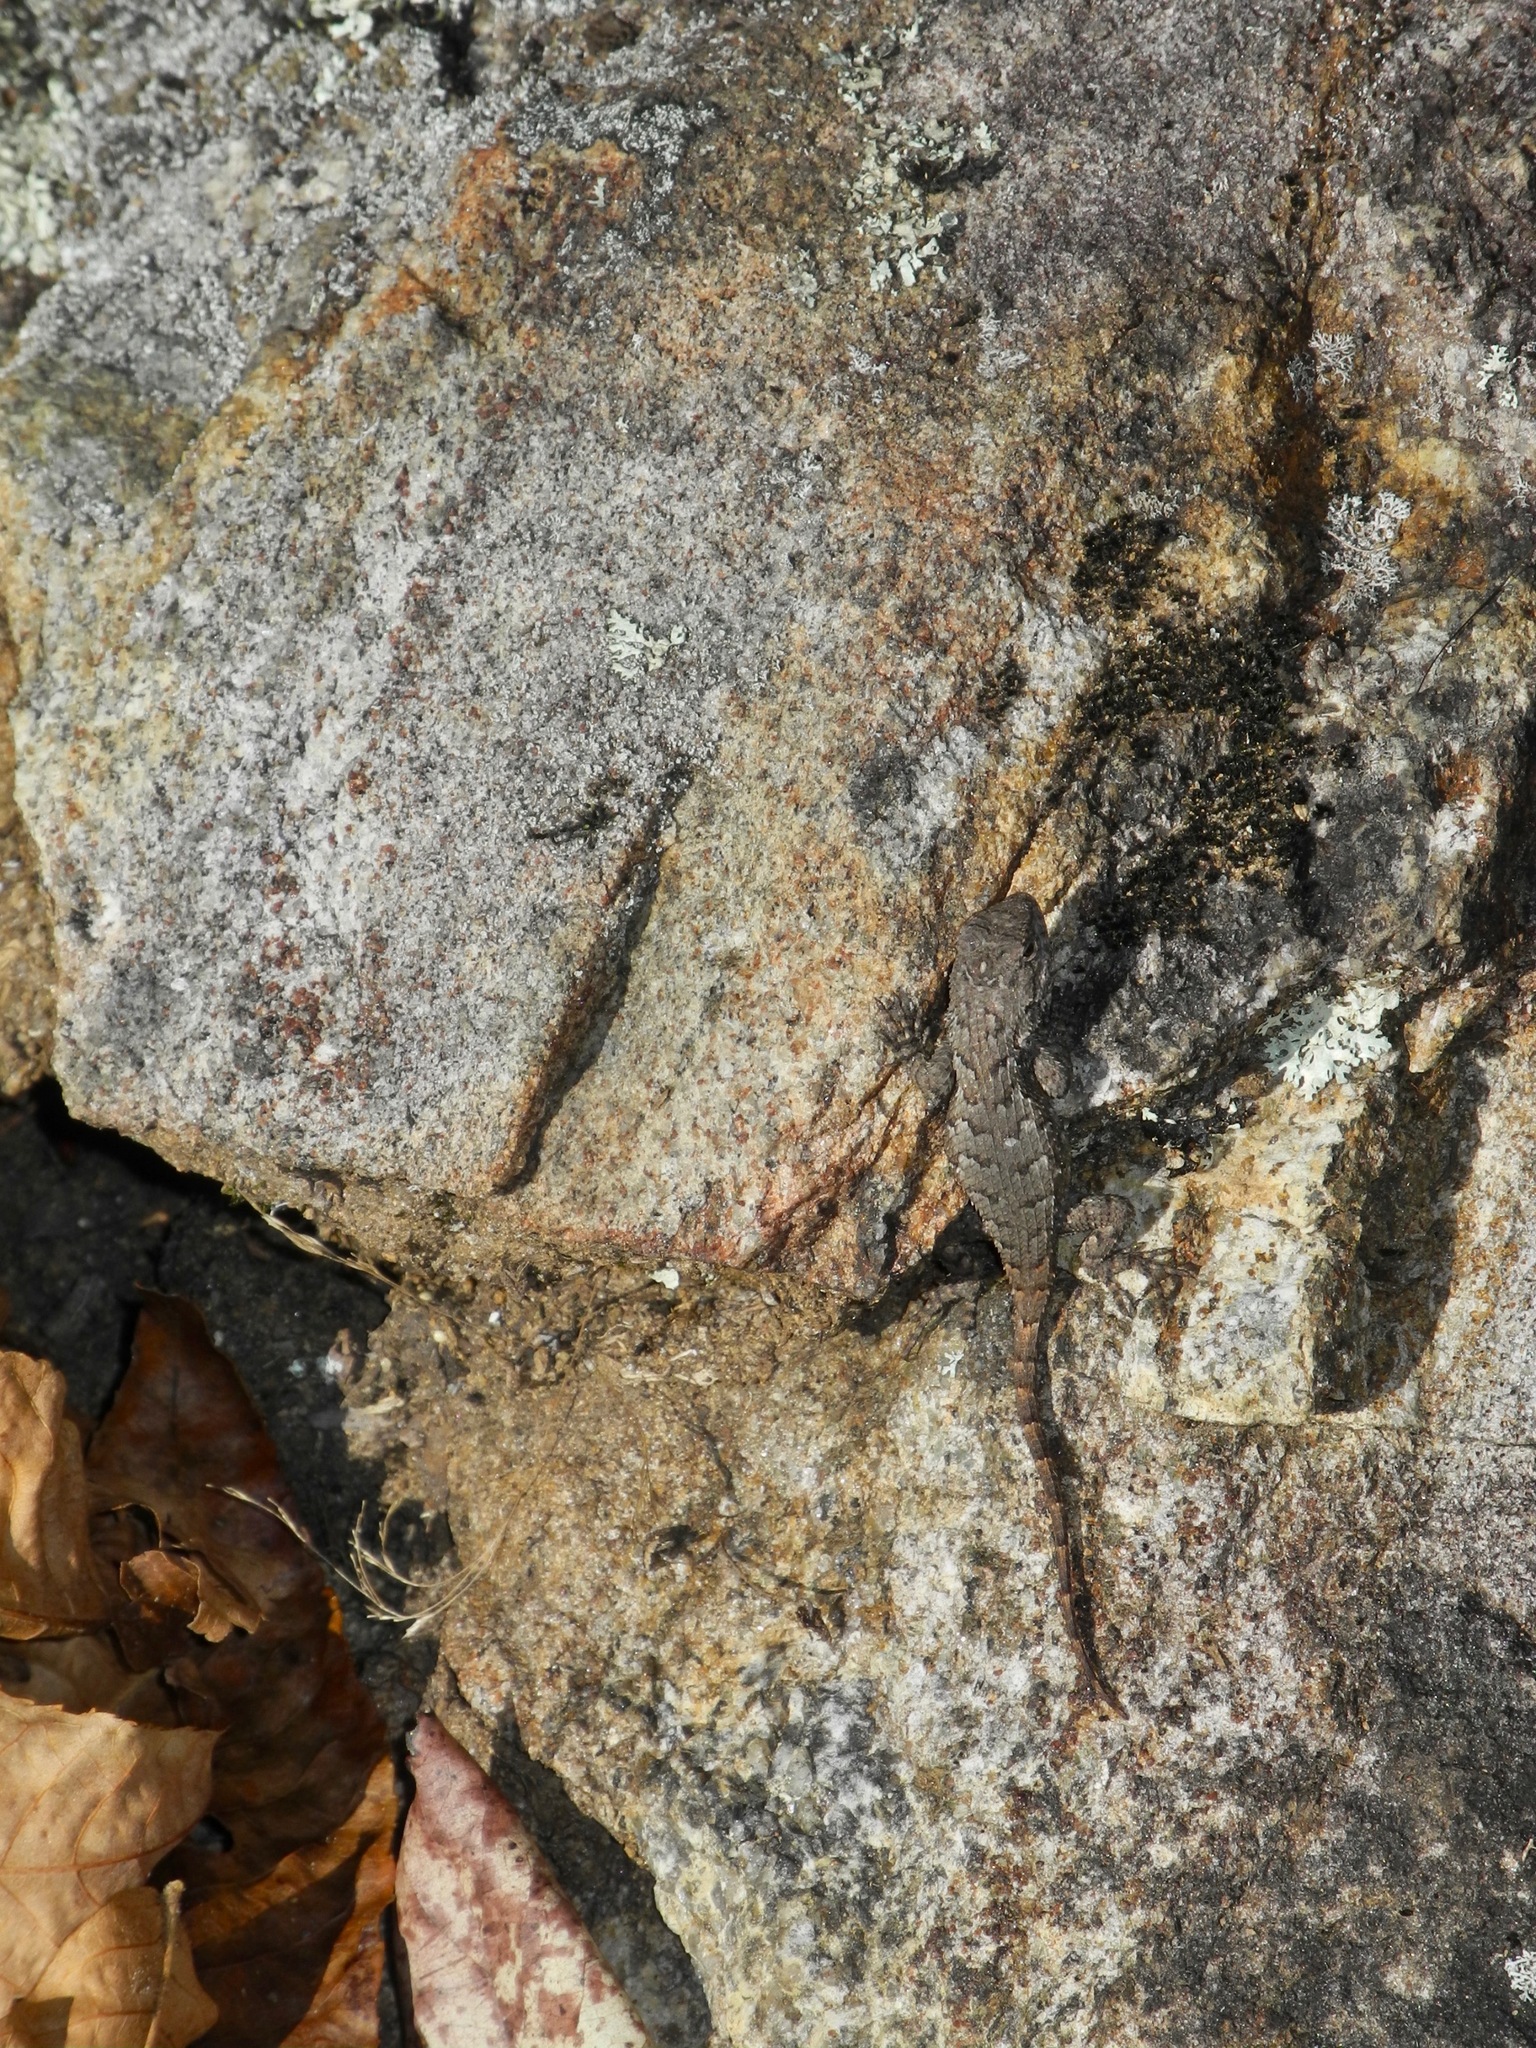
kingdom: Animalia
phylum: Chordata
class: Squamata
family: Phrynosomatidae
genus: Sceloporus
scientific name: Sceloporus undulatus
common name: Eastern fence lizard
